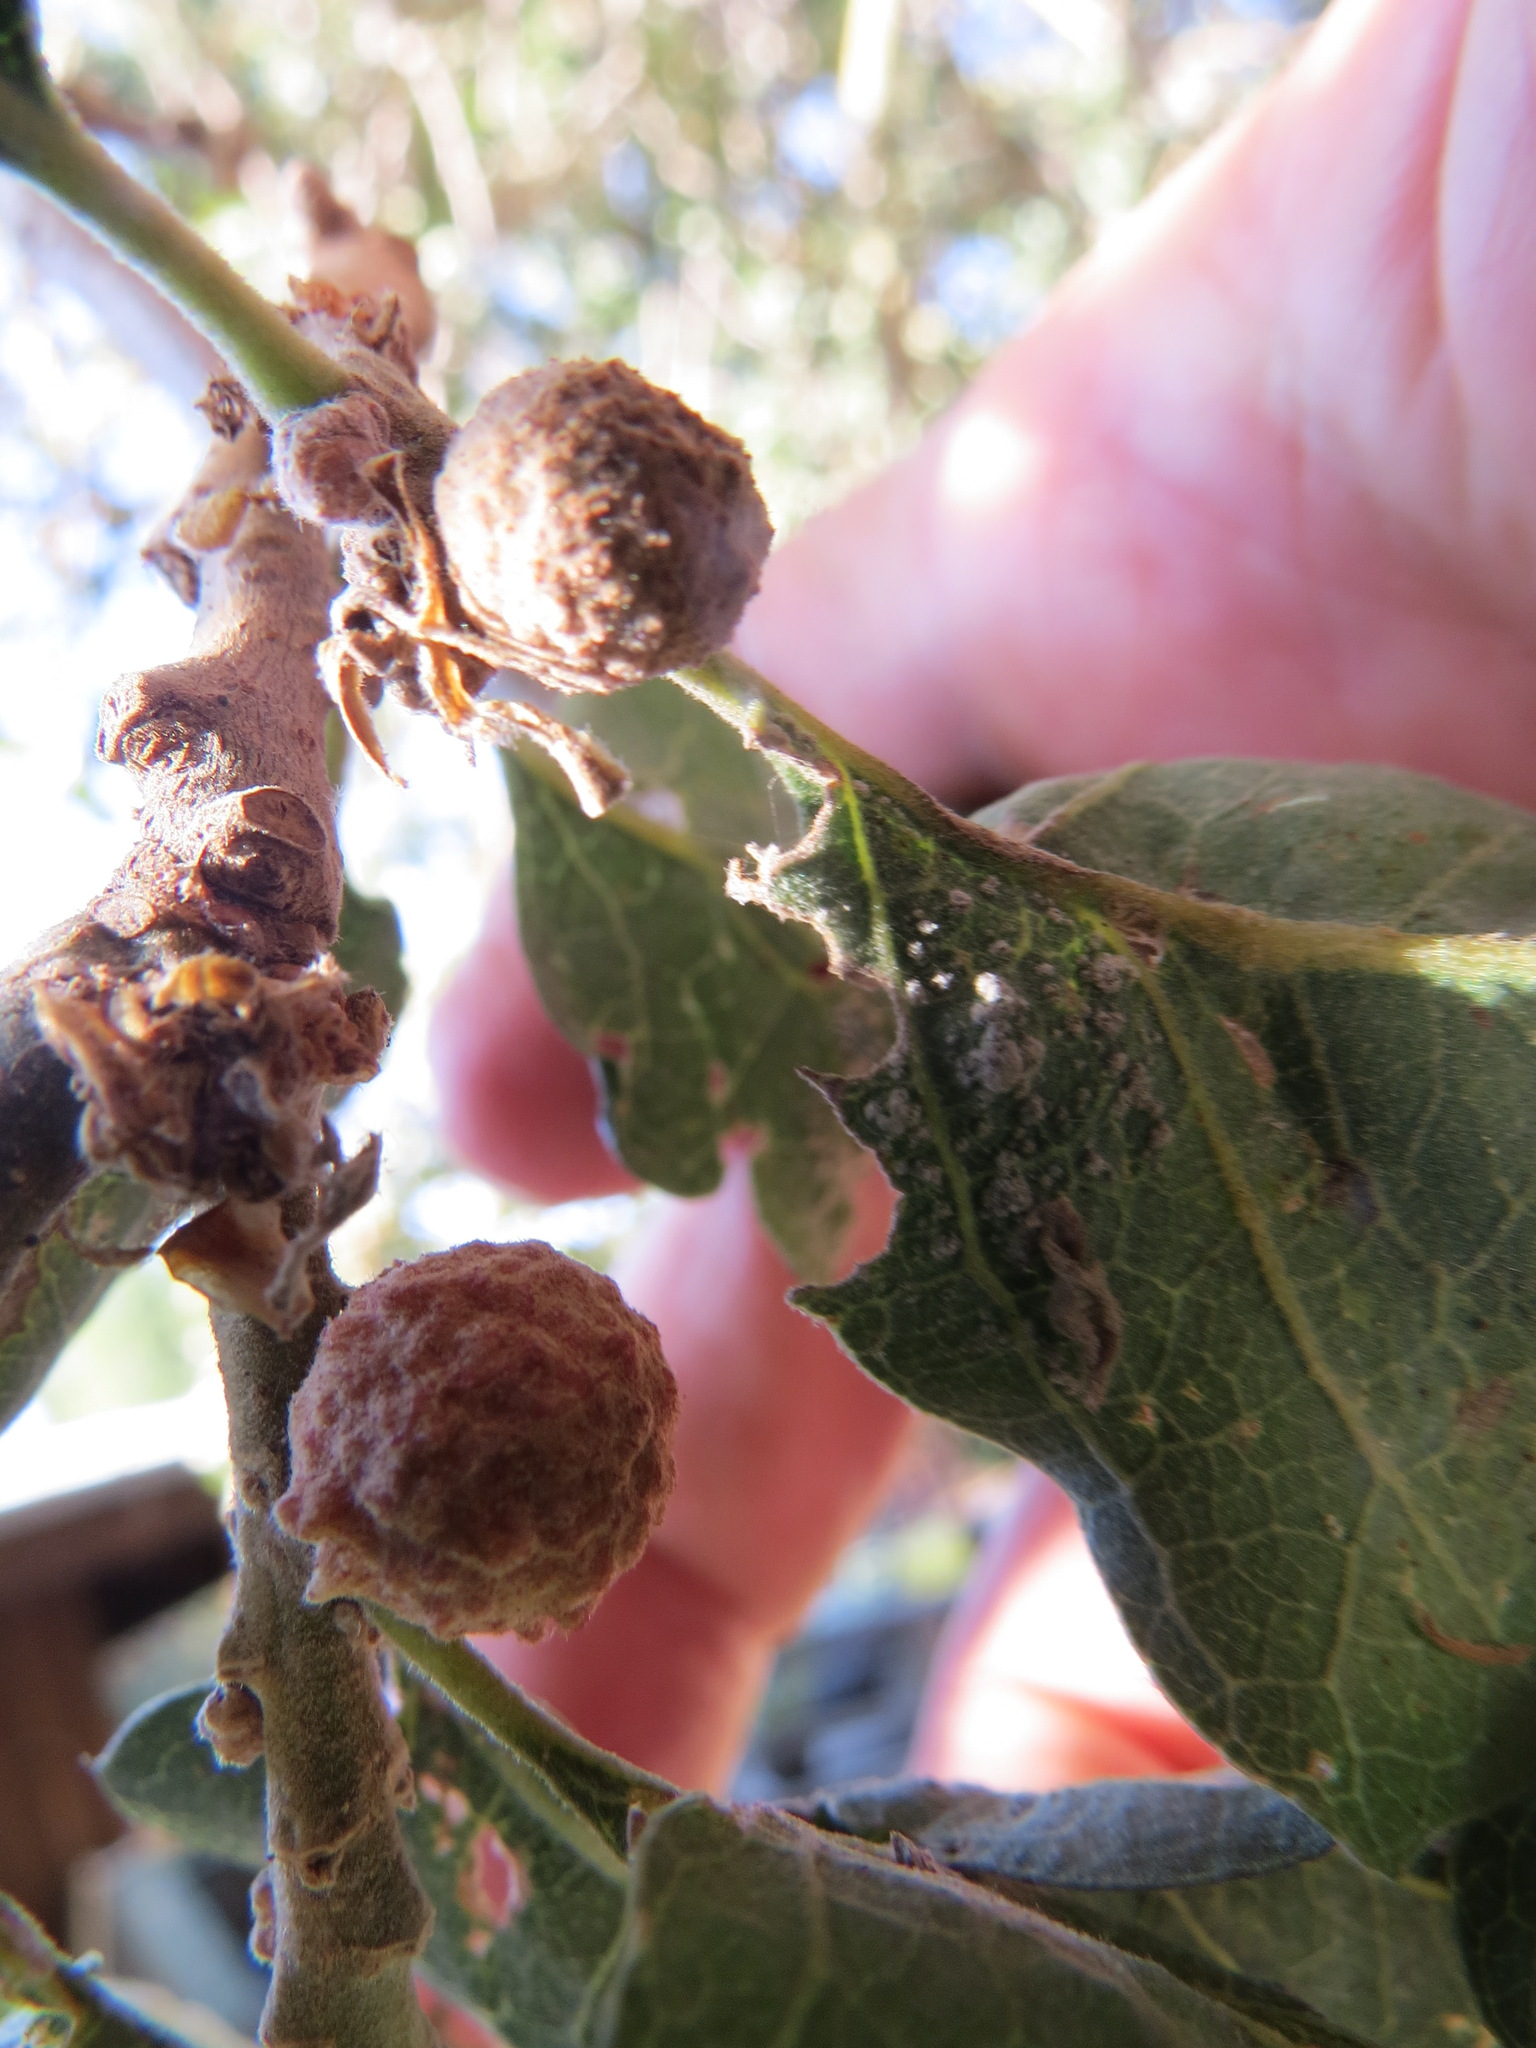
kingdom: Animalia
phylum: Arthropoda
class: Insecta
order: Hymenoptera
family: Cynipidae
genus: Cynips
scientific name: Cynips conspicua
